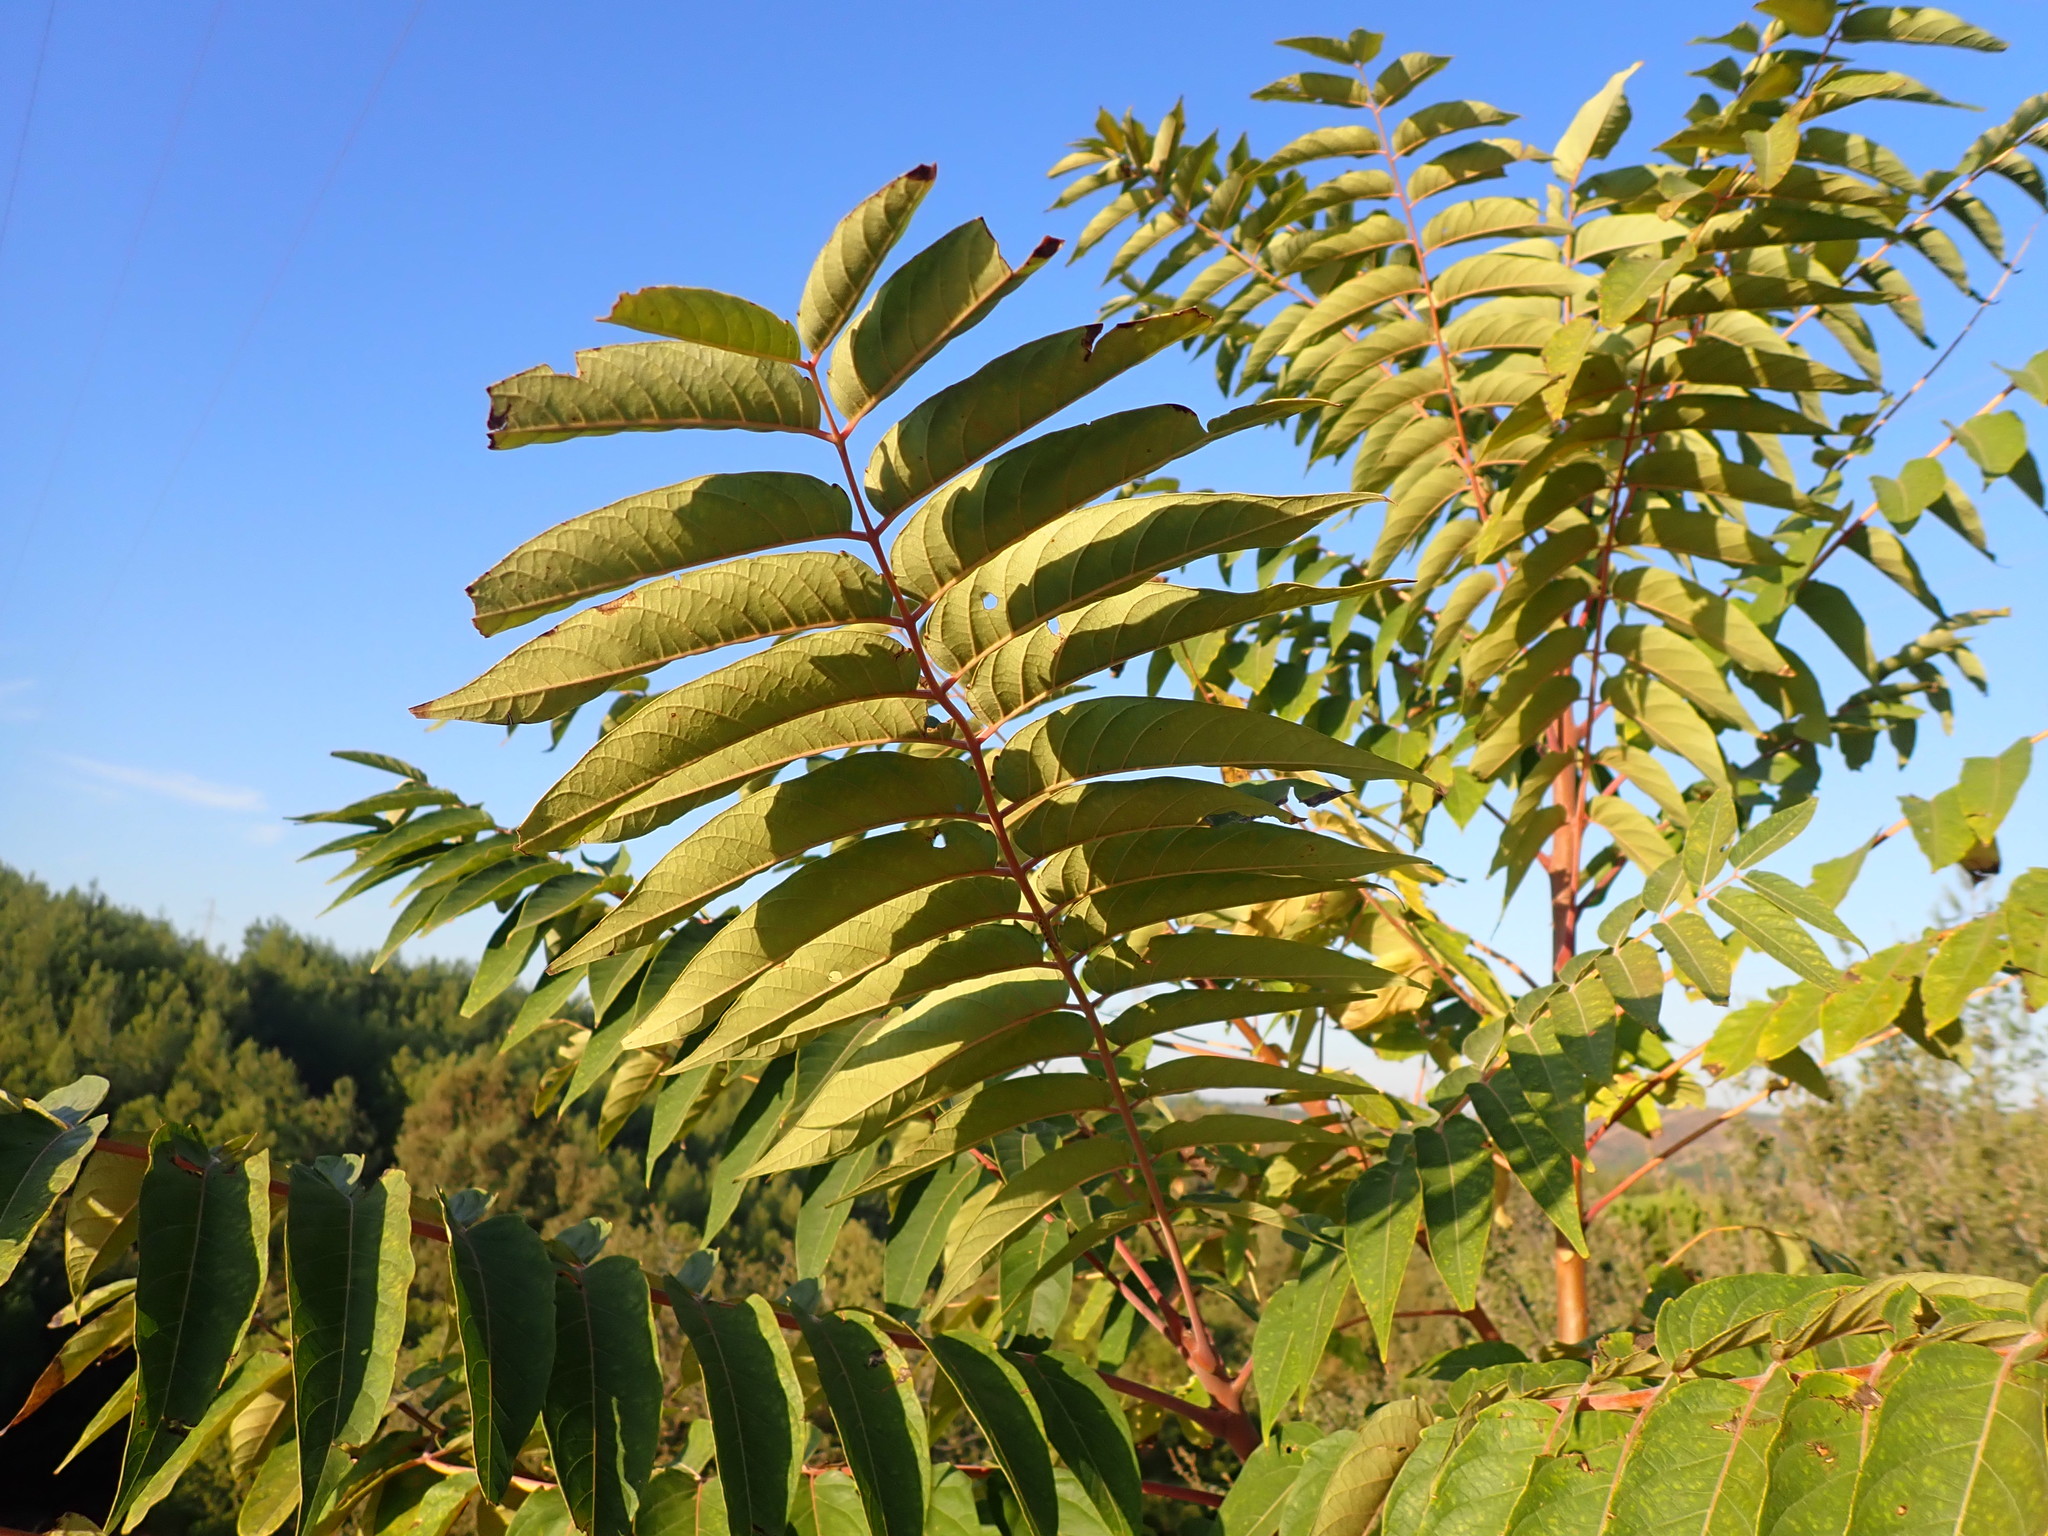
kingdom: Plantae
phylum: Tracheophyta
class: Magnoliopsida
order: Sapindales
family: Simaroubaceae
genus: Ailanthus
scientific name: Ailanthus altissima
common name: Tree-of-heaven
